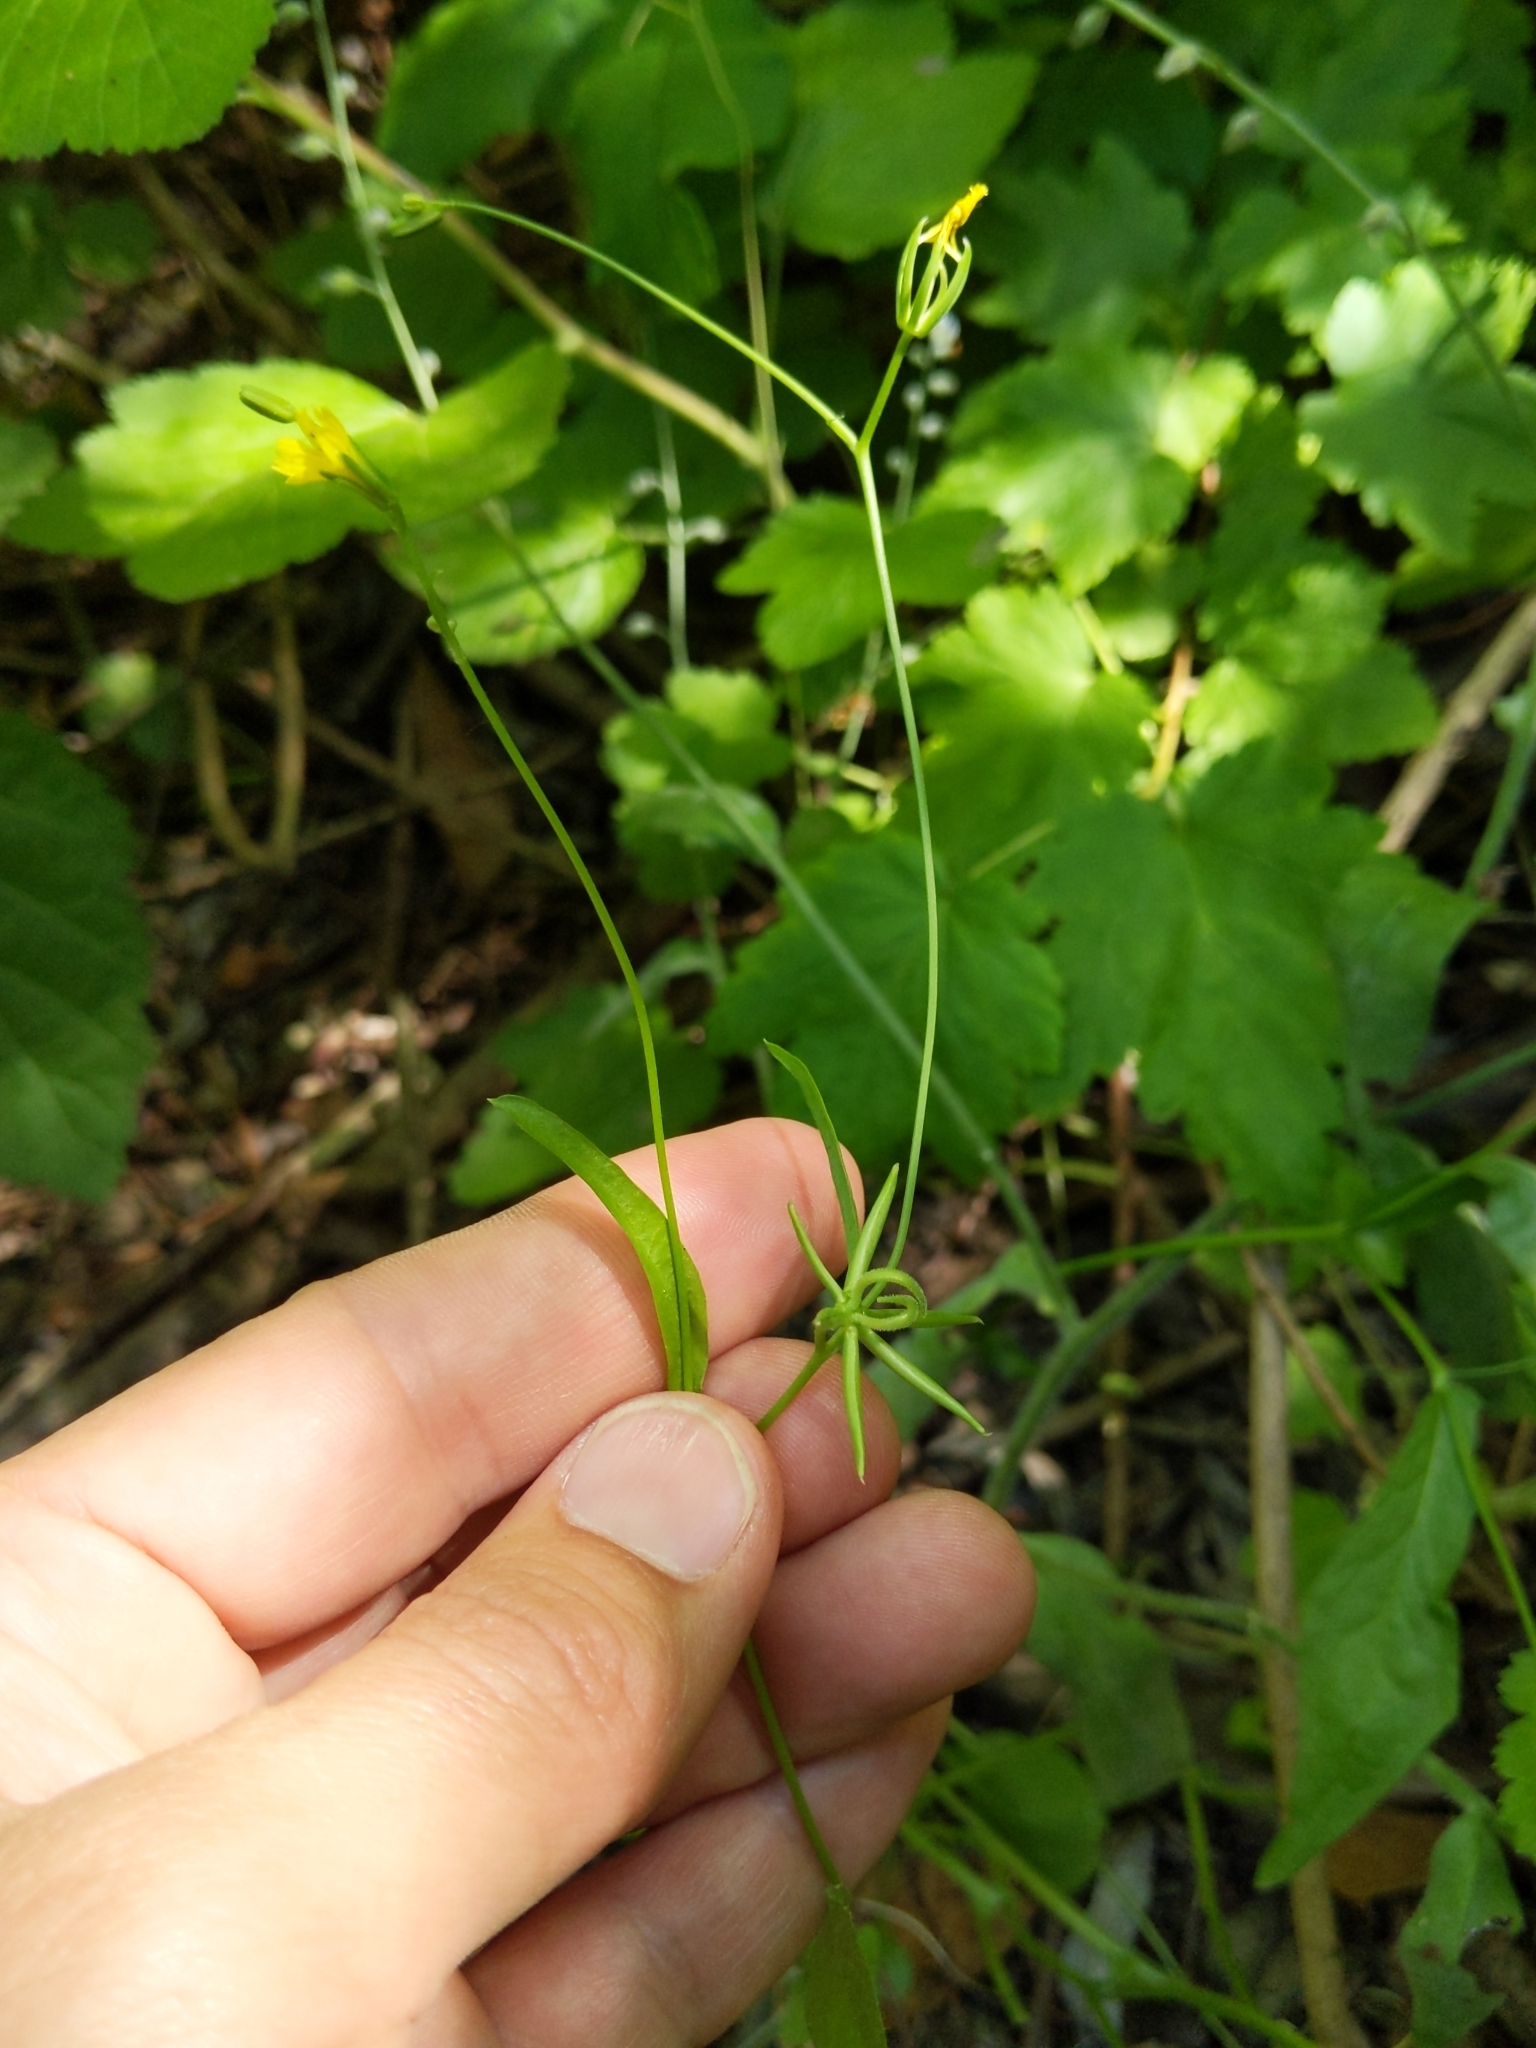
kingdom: Plantae
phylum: Tracheophyta
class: Magnoliopsida
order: Asterales
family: Asteraceae
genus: Rhagadiolus
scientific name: Rhagadiolus stellatus
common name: Star hawkbit
